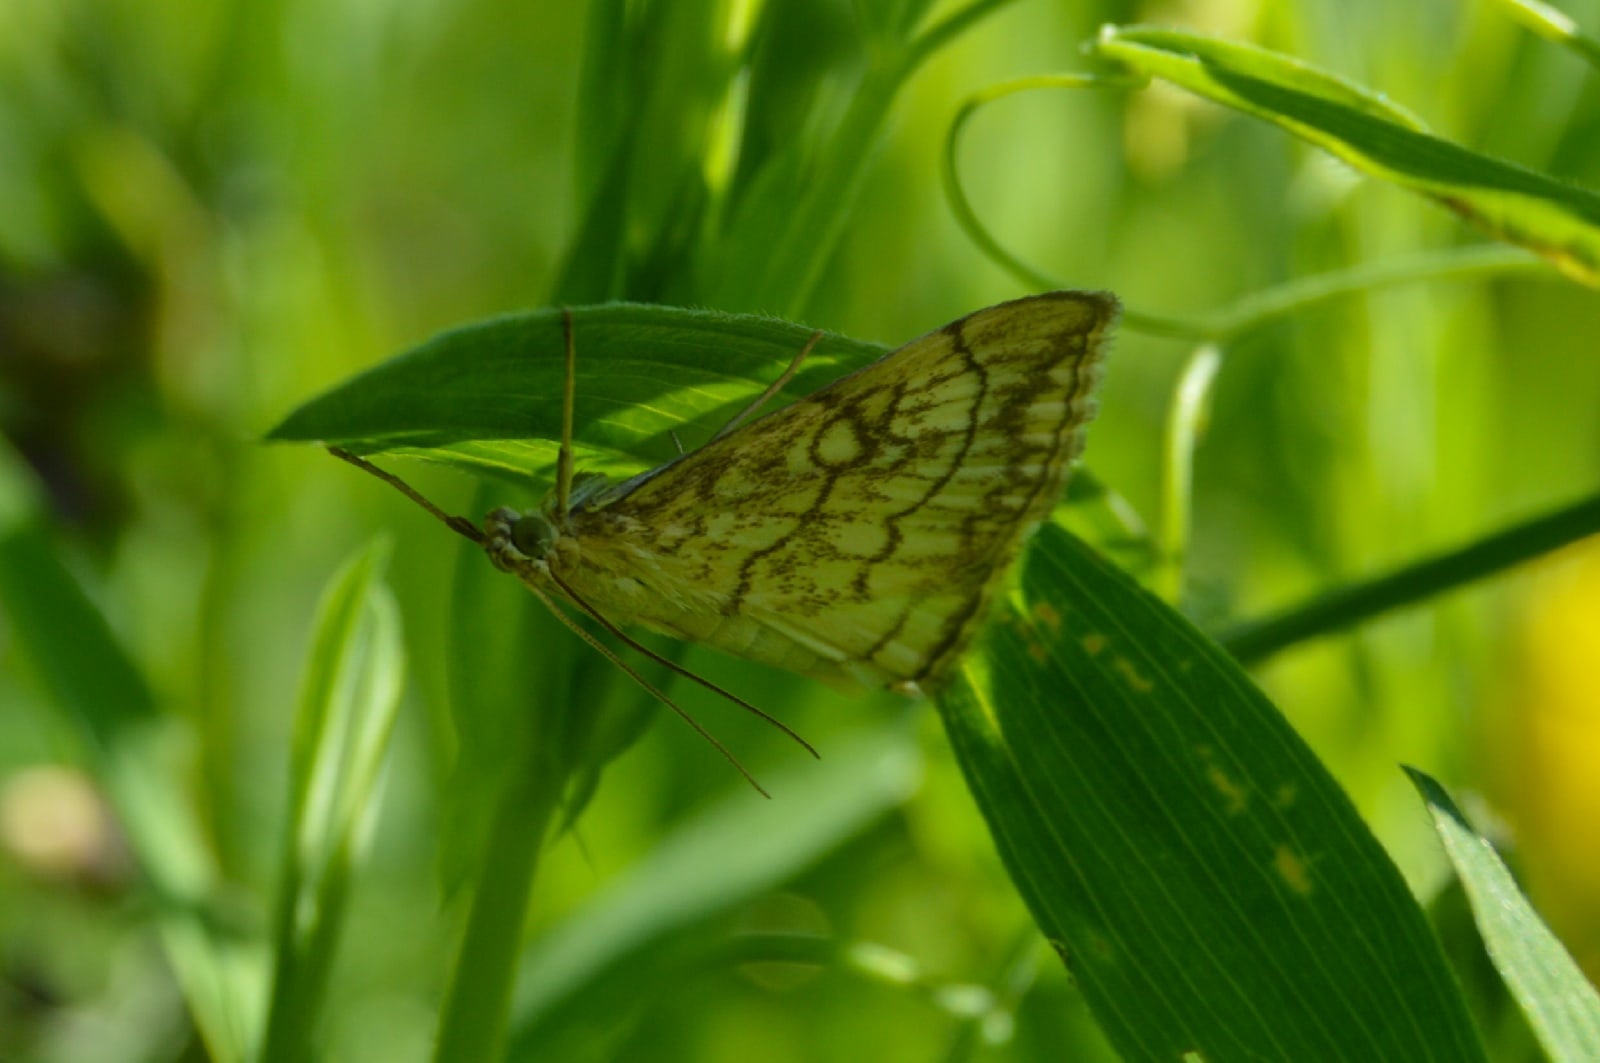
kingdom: Animalia
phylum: Arthropoda
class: Insecta
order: Lepidoptera
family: Crambidae
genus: Evergestis
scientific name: Evergestis pallidata
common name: Chequered pearl
